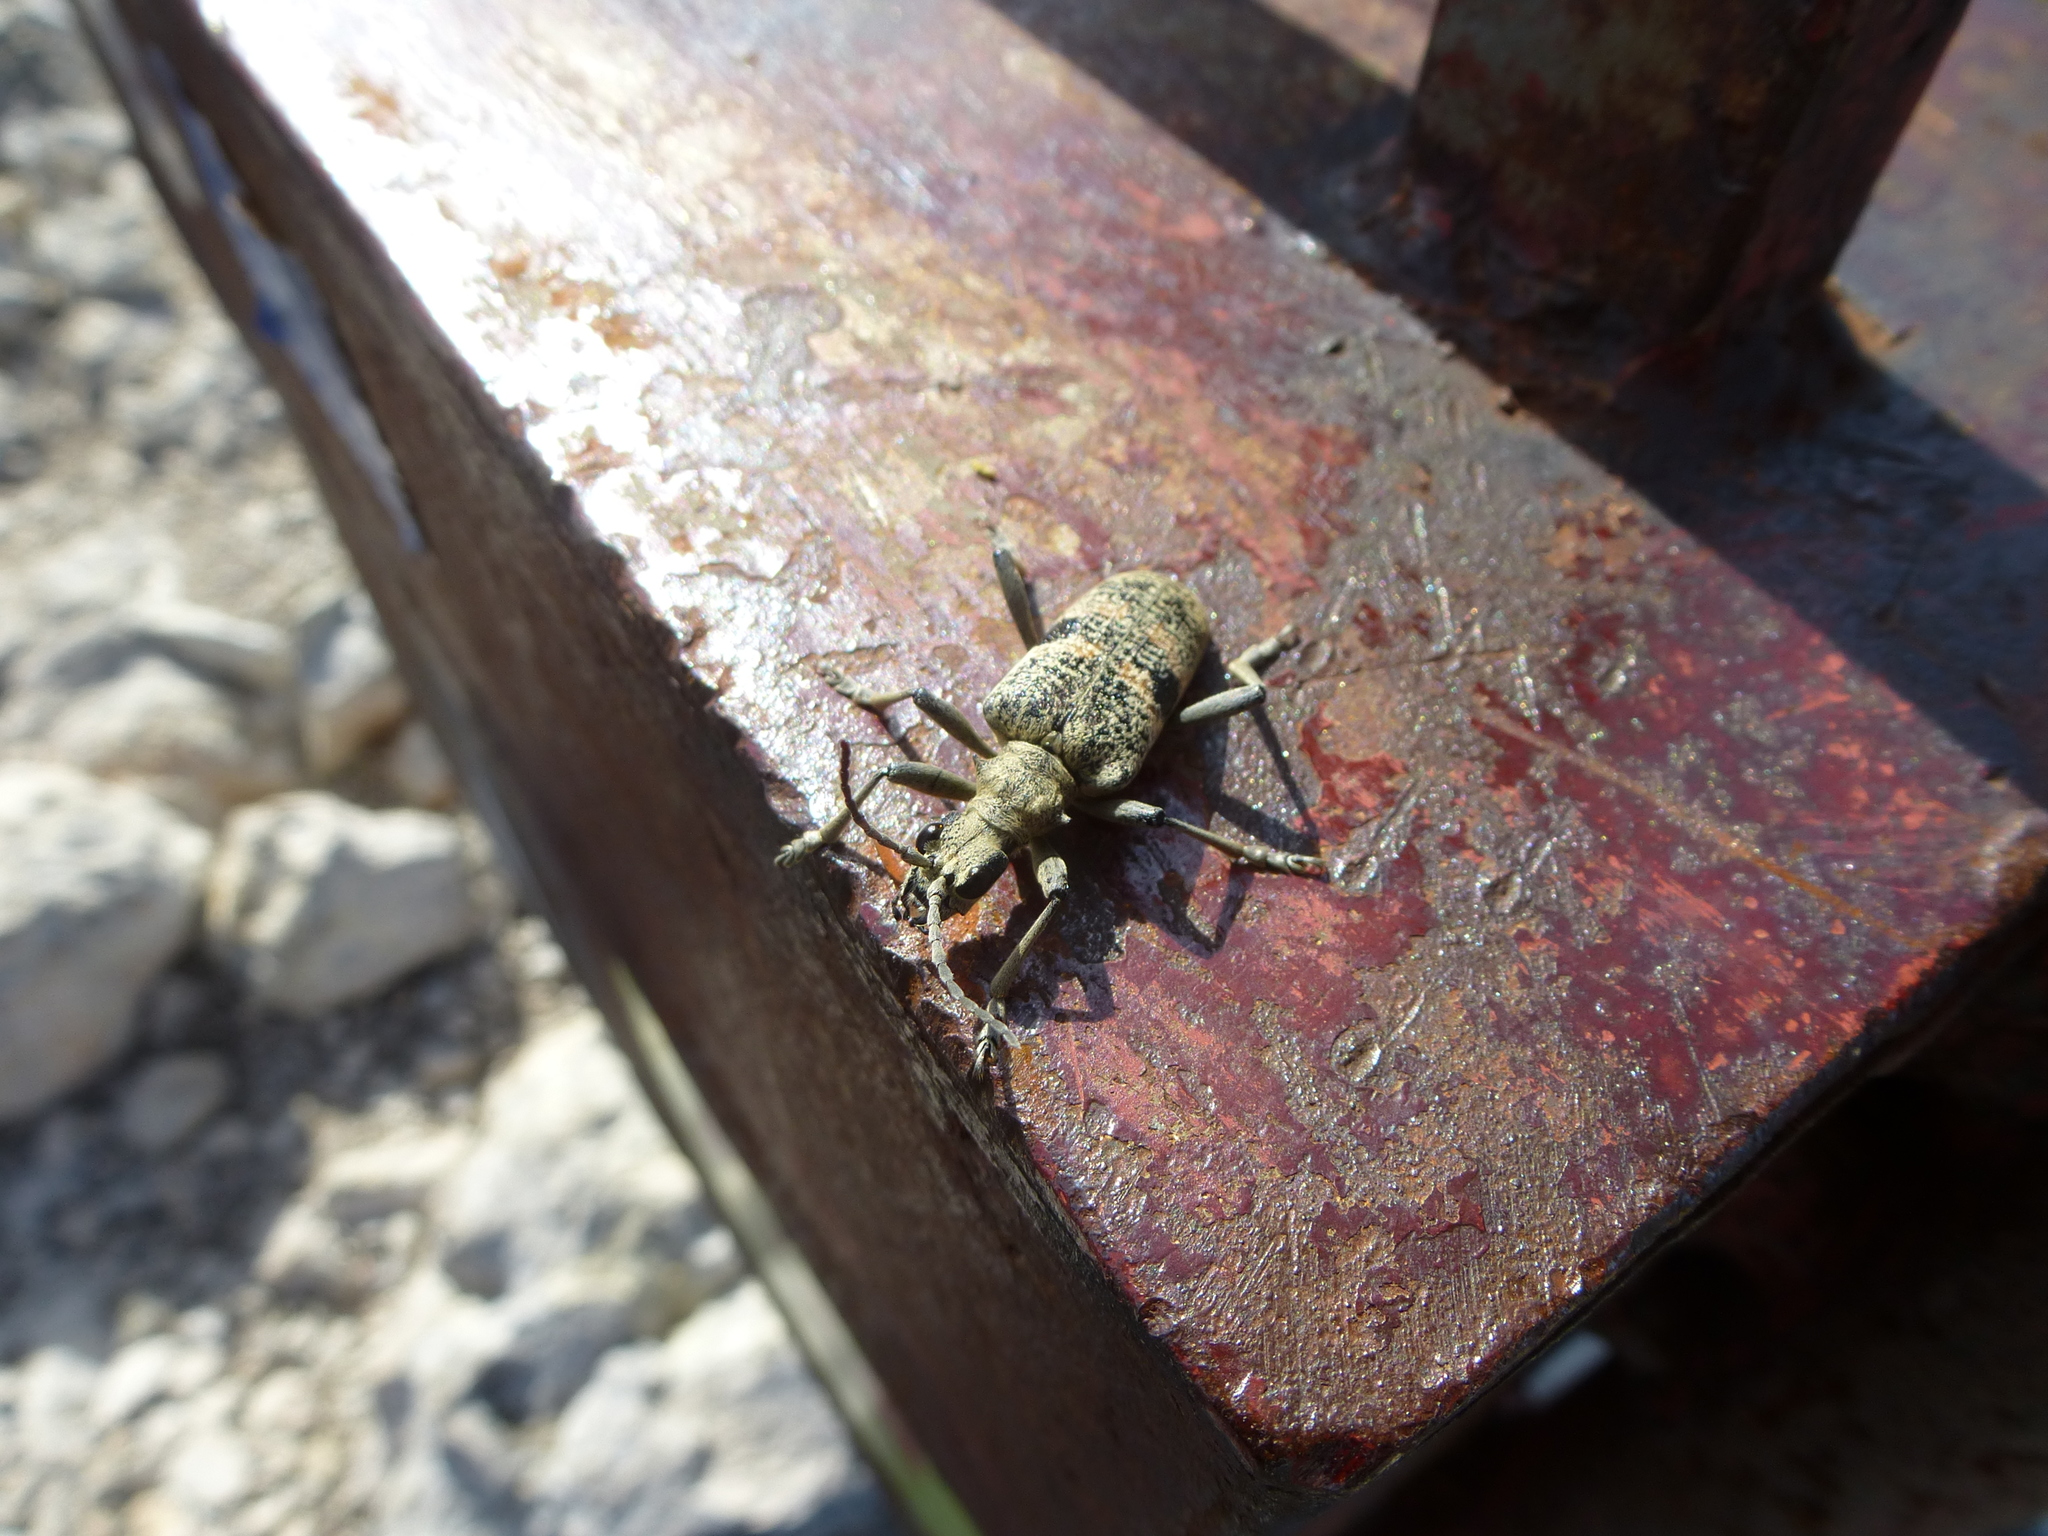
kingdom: Animalia
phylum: Arthropoda
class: Insecta
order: Coleoptera
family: Cerambycidae
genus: Rhagium
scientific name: Rhagium mordax
